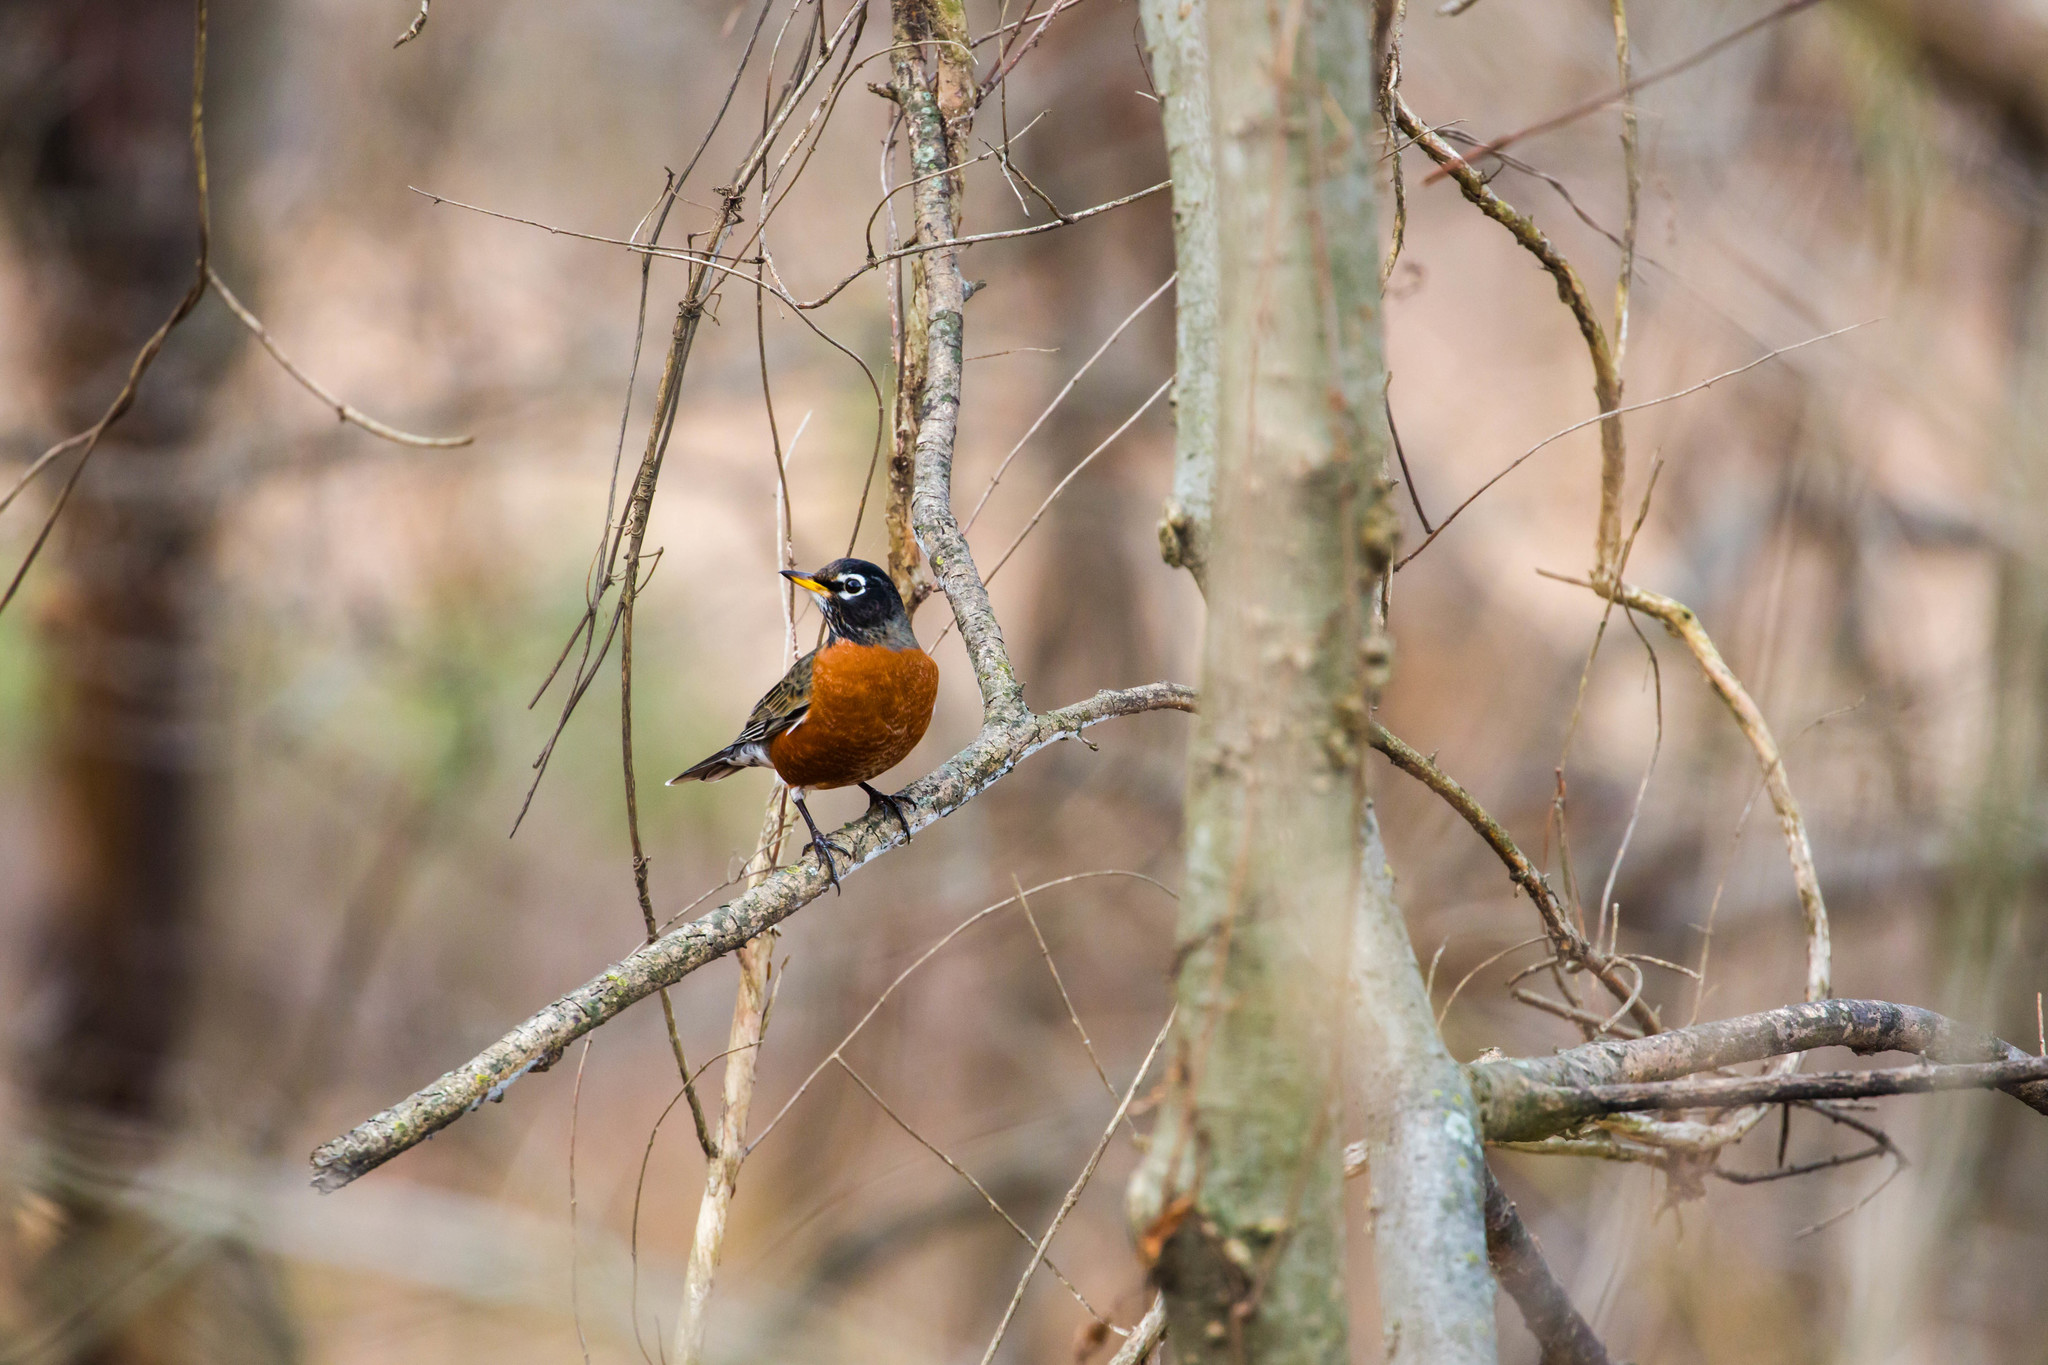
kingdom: Animalia
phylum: Chordata
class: Aves
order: Passeriformes
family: Turdidae
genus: Turdus
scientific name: Turdus migratorius
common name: American robin
